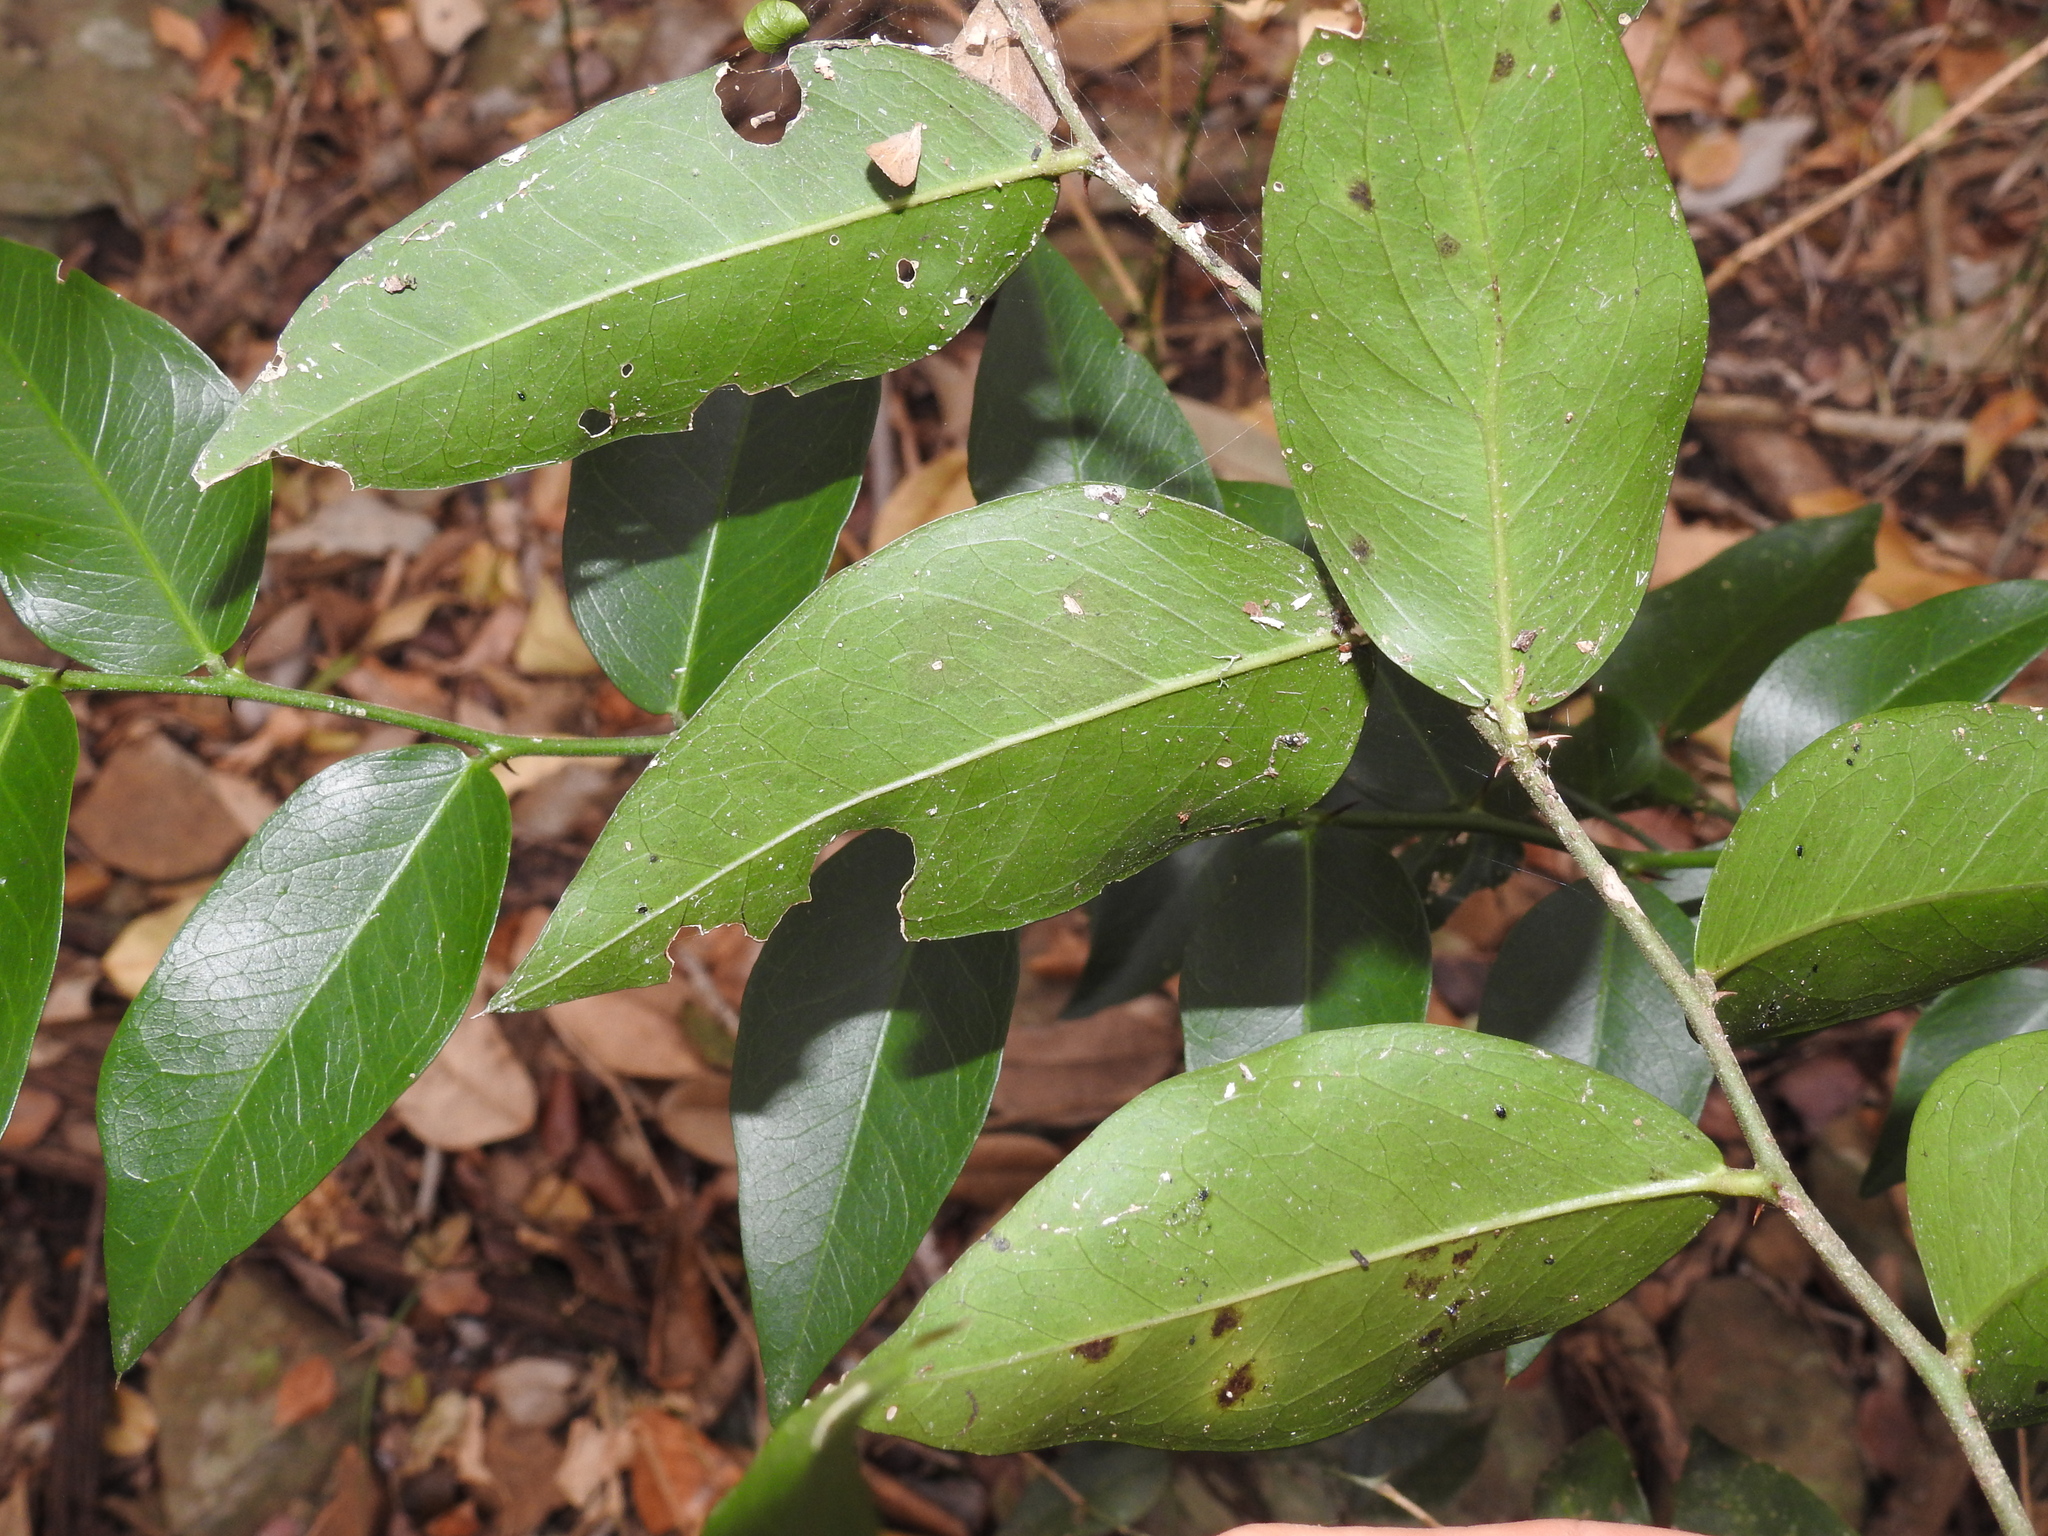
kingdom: Plantae
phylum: Tracheophyta
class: Magnoliopsida
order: Brassicales
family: Capparaceae
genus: Capparis
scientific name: Capparis arborea
